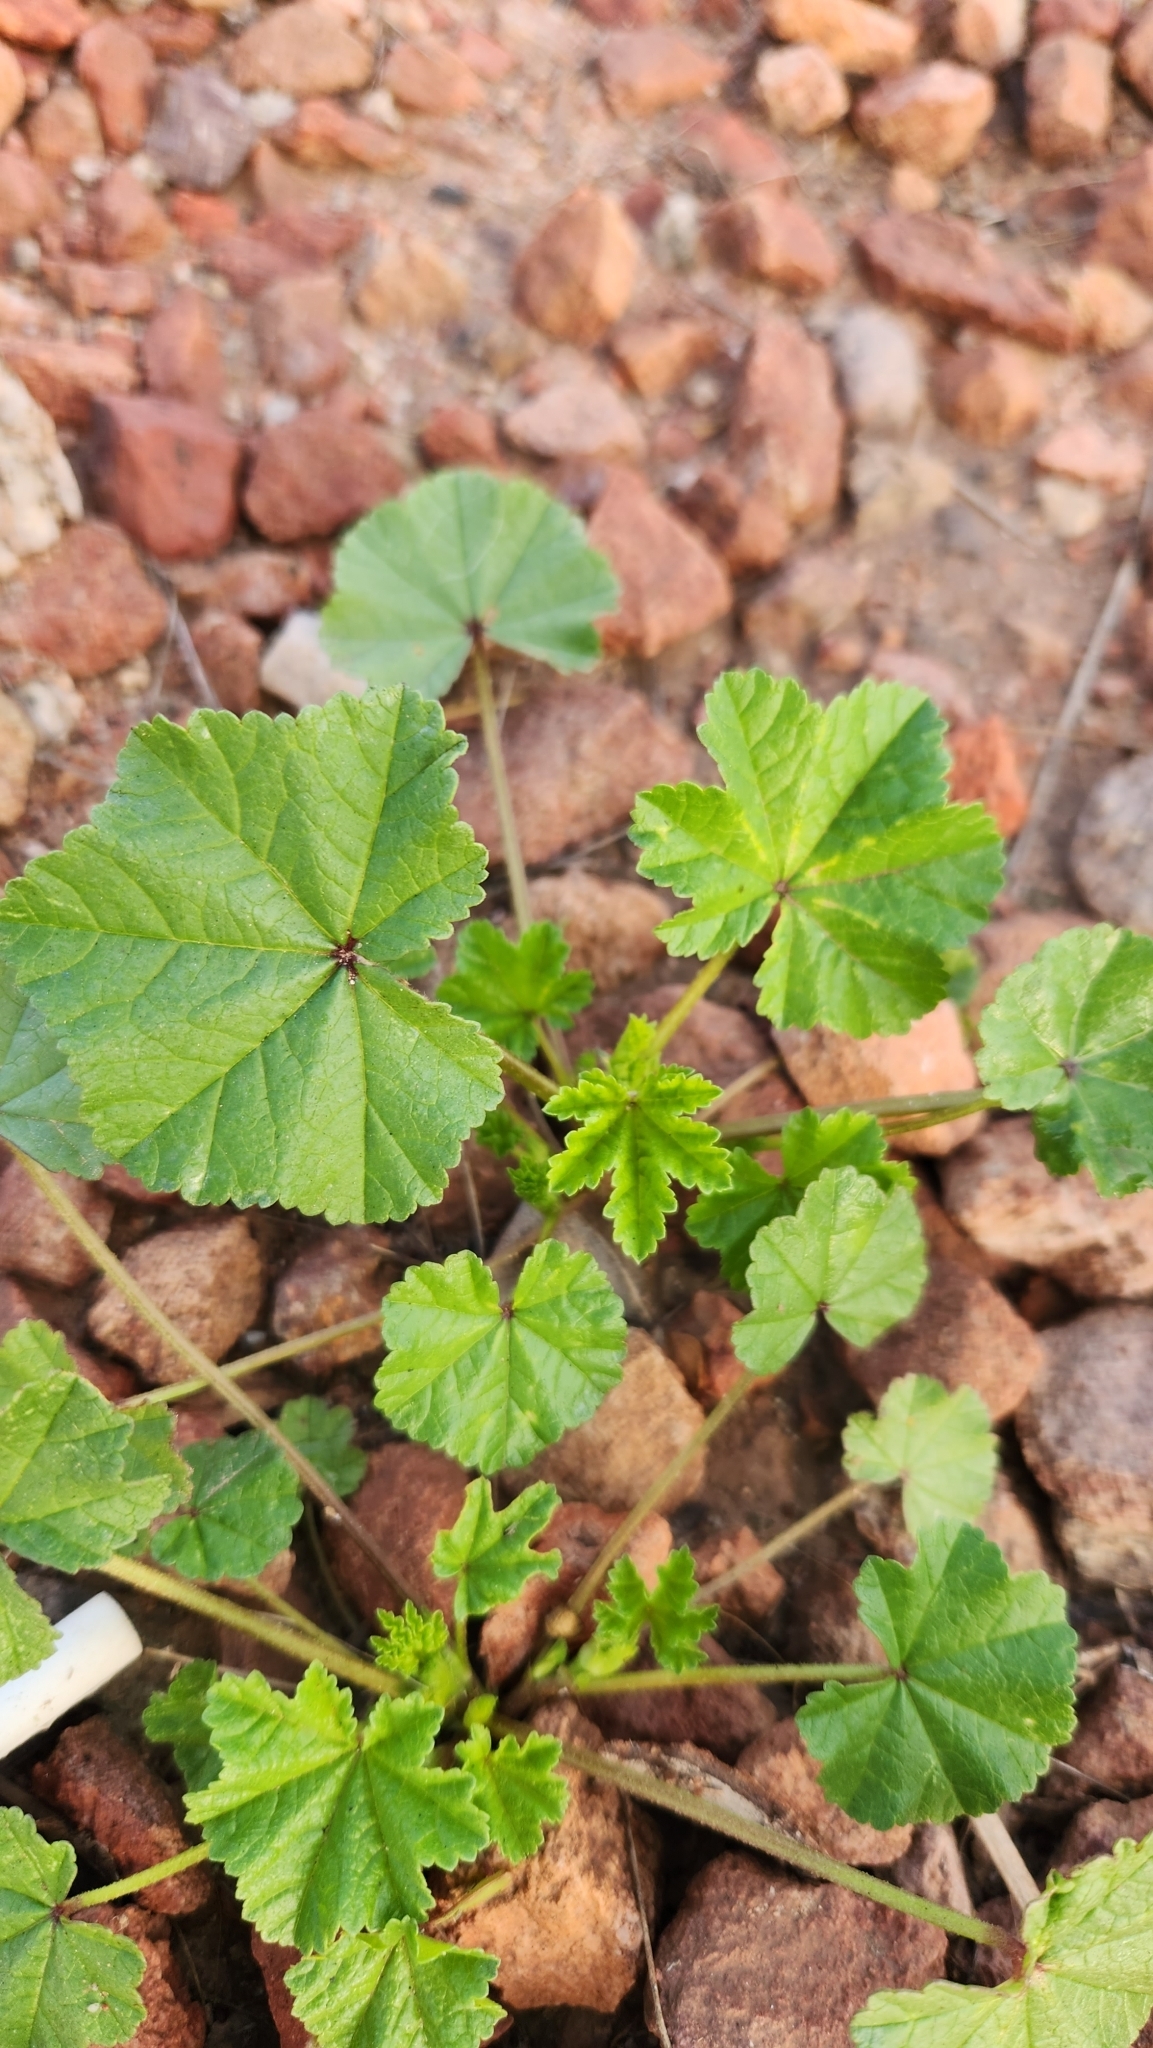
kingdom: Plantae
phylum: Tracheophyta
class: Magnoliopsida
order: Malvales
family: Malvaceae
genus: Malva
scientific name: Malva parviflora
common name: Least mallow
